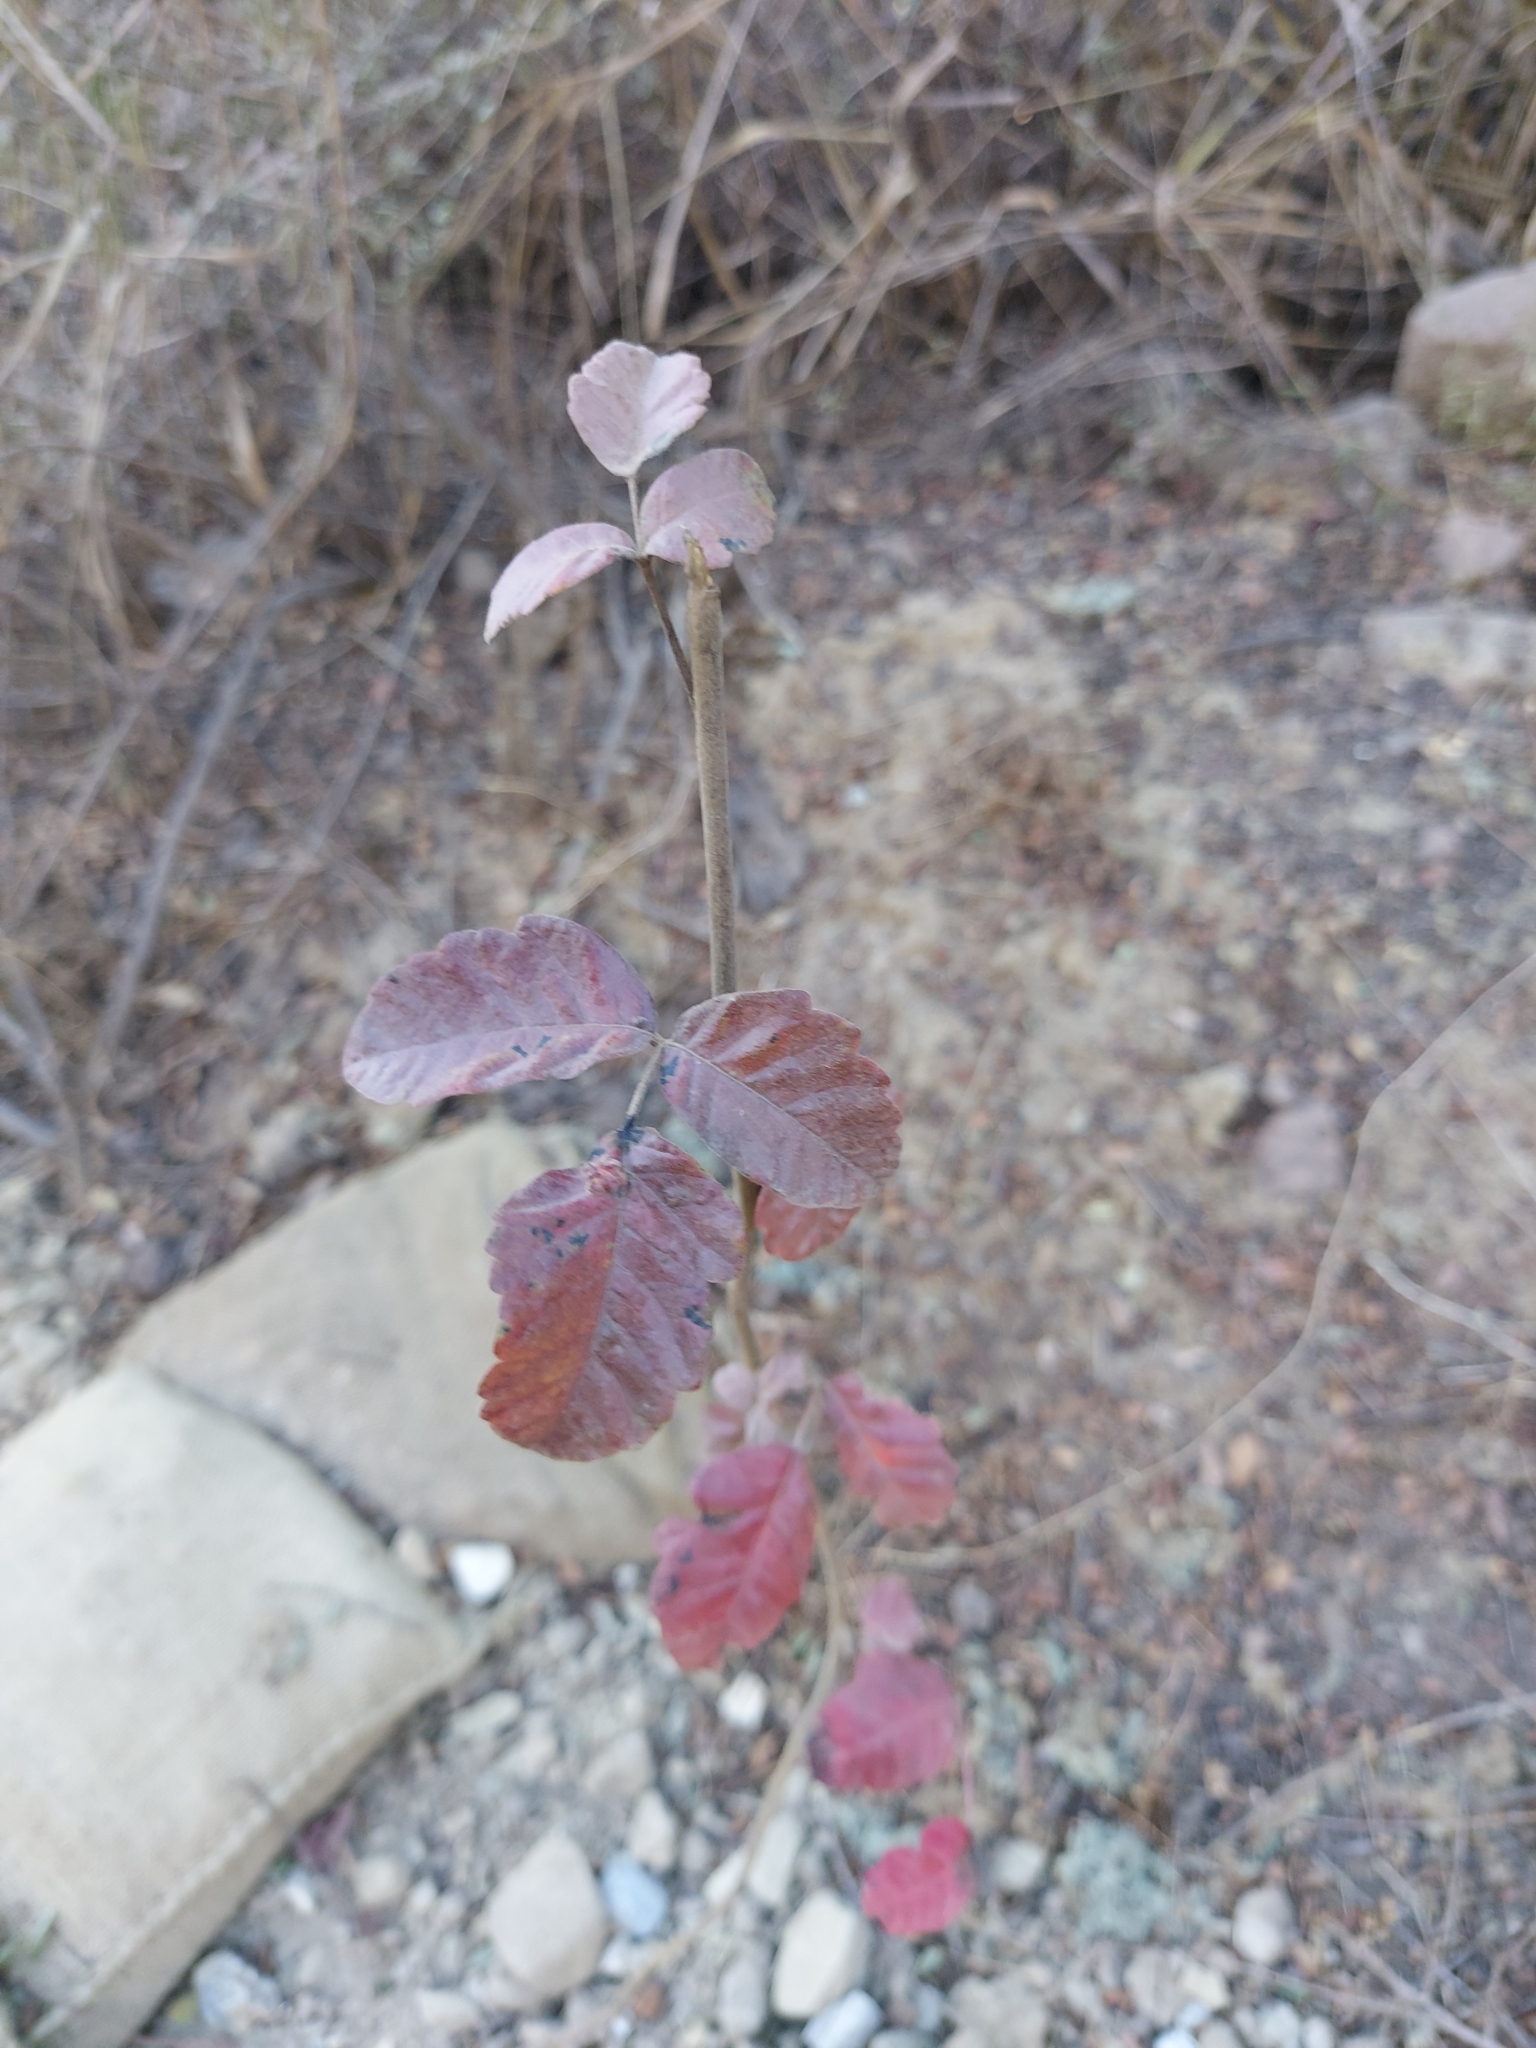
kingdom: Plantae
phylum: Tracheophyta
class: Magnoliopsida
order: Sapindales
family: Anacardiaceae
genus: Toxicodendron
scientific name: Toxicodendron diversilobum
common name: Pacific poison-oak
